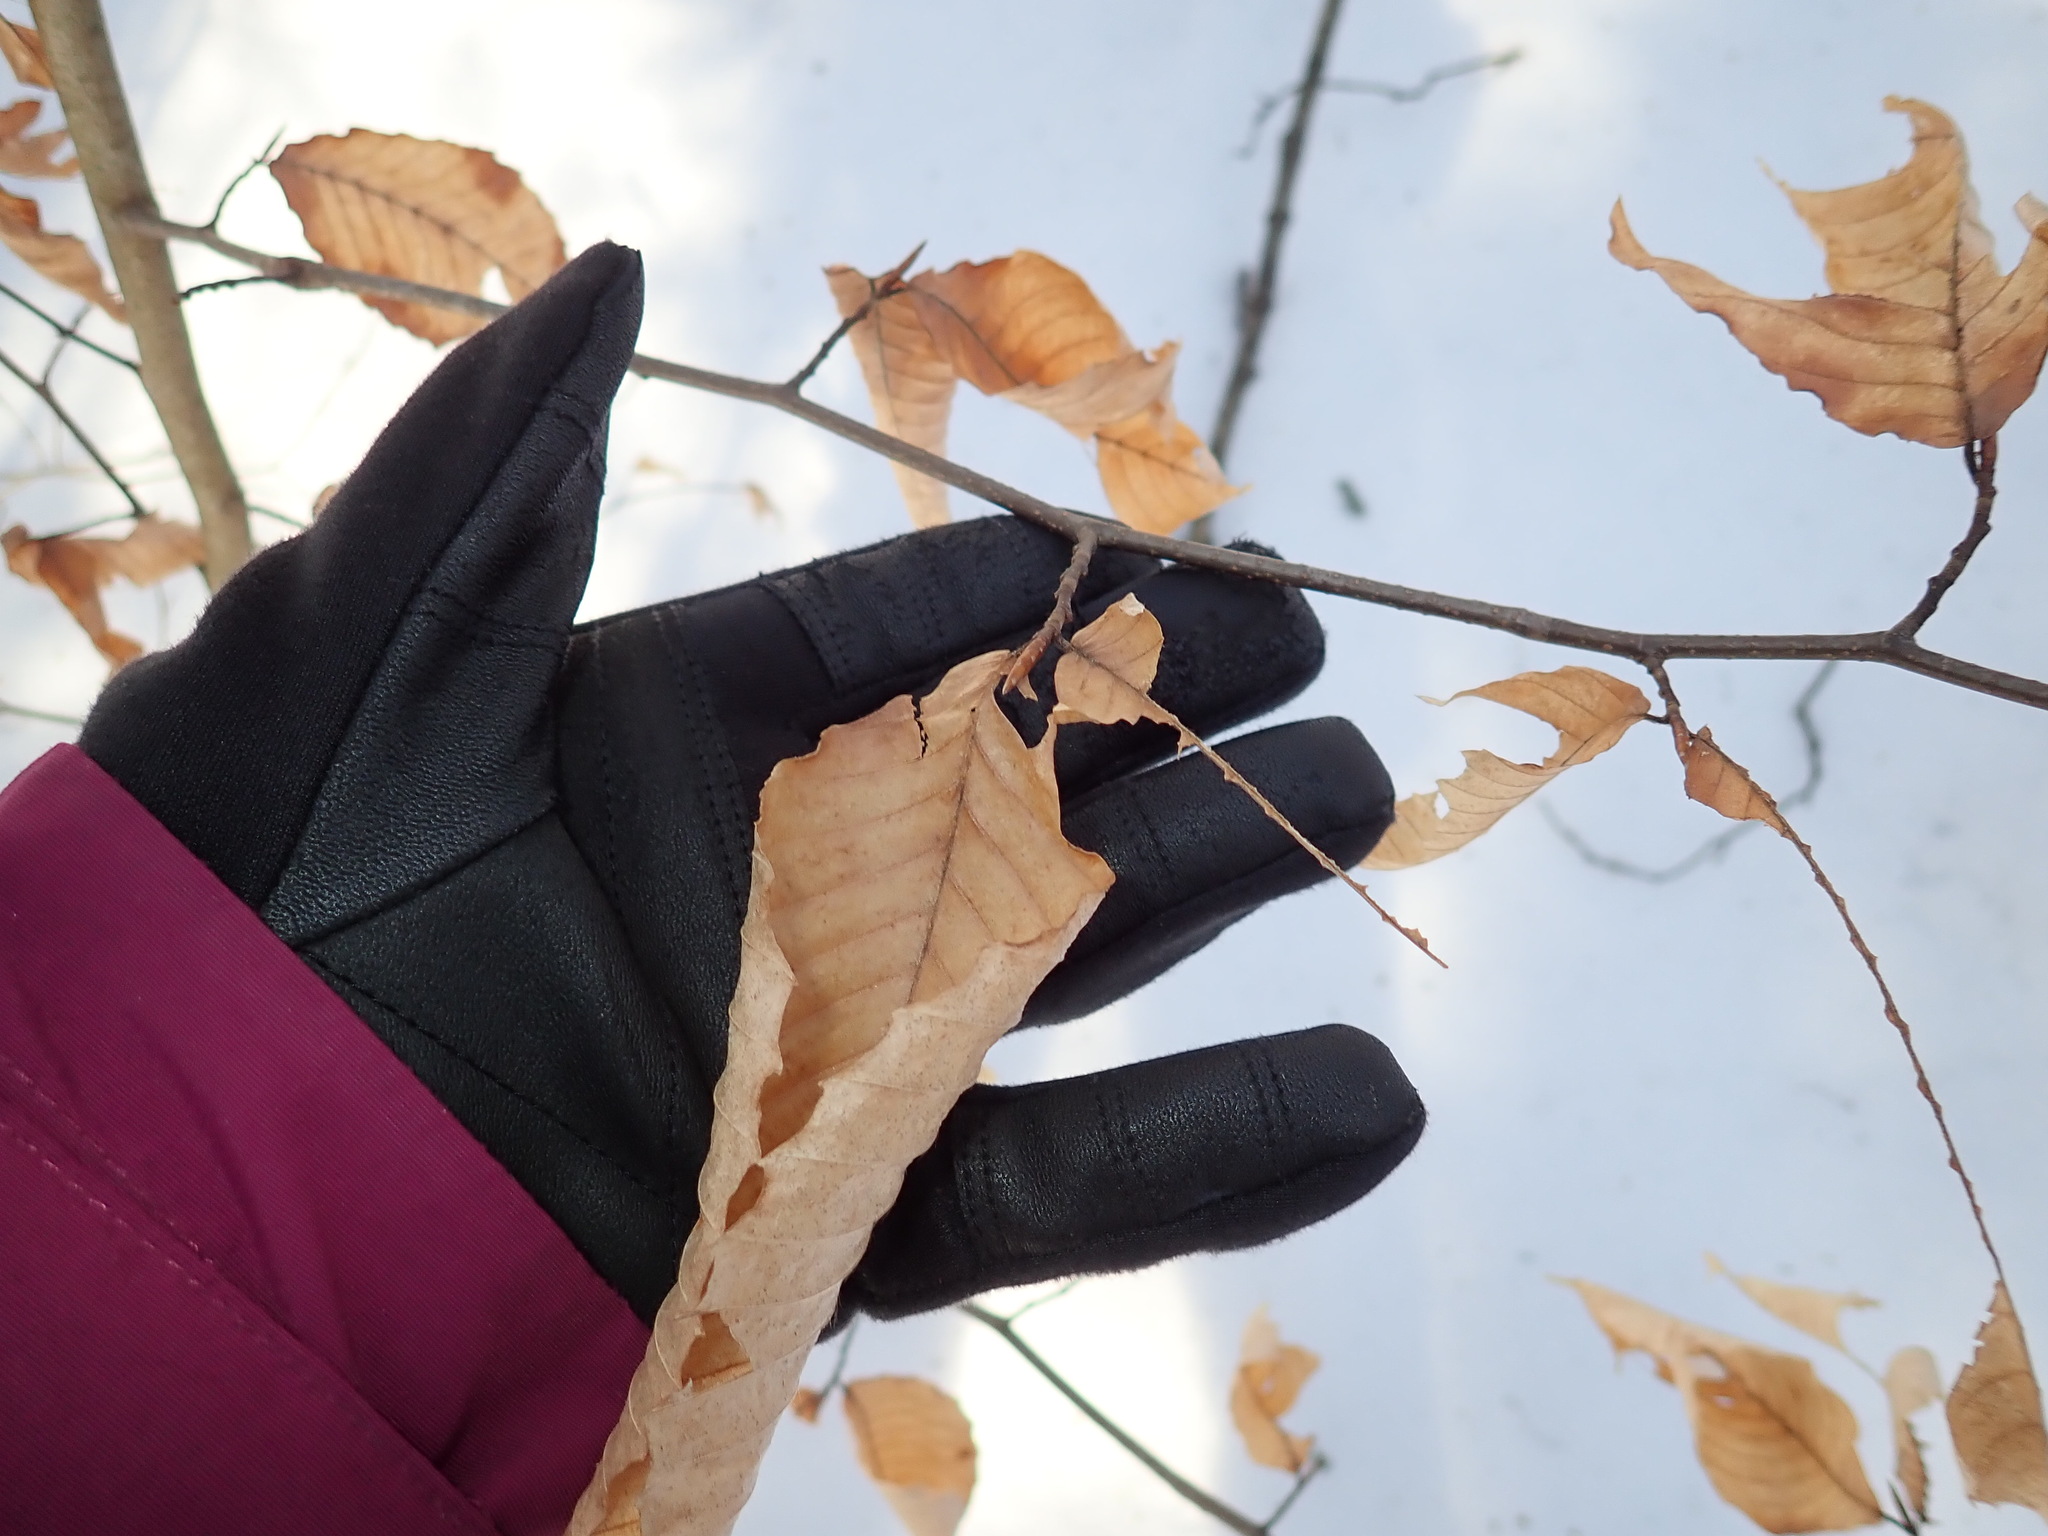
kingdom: Plantae
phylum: Tracheophyta
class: Magnoliopsida
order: Fagales
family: Fagaceae
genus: Fagus
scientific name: Fagus grandifolia
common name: American beech
